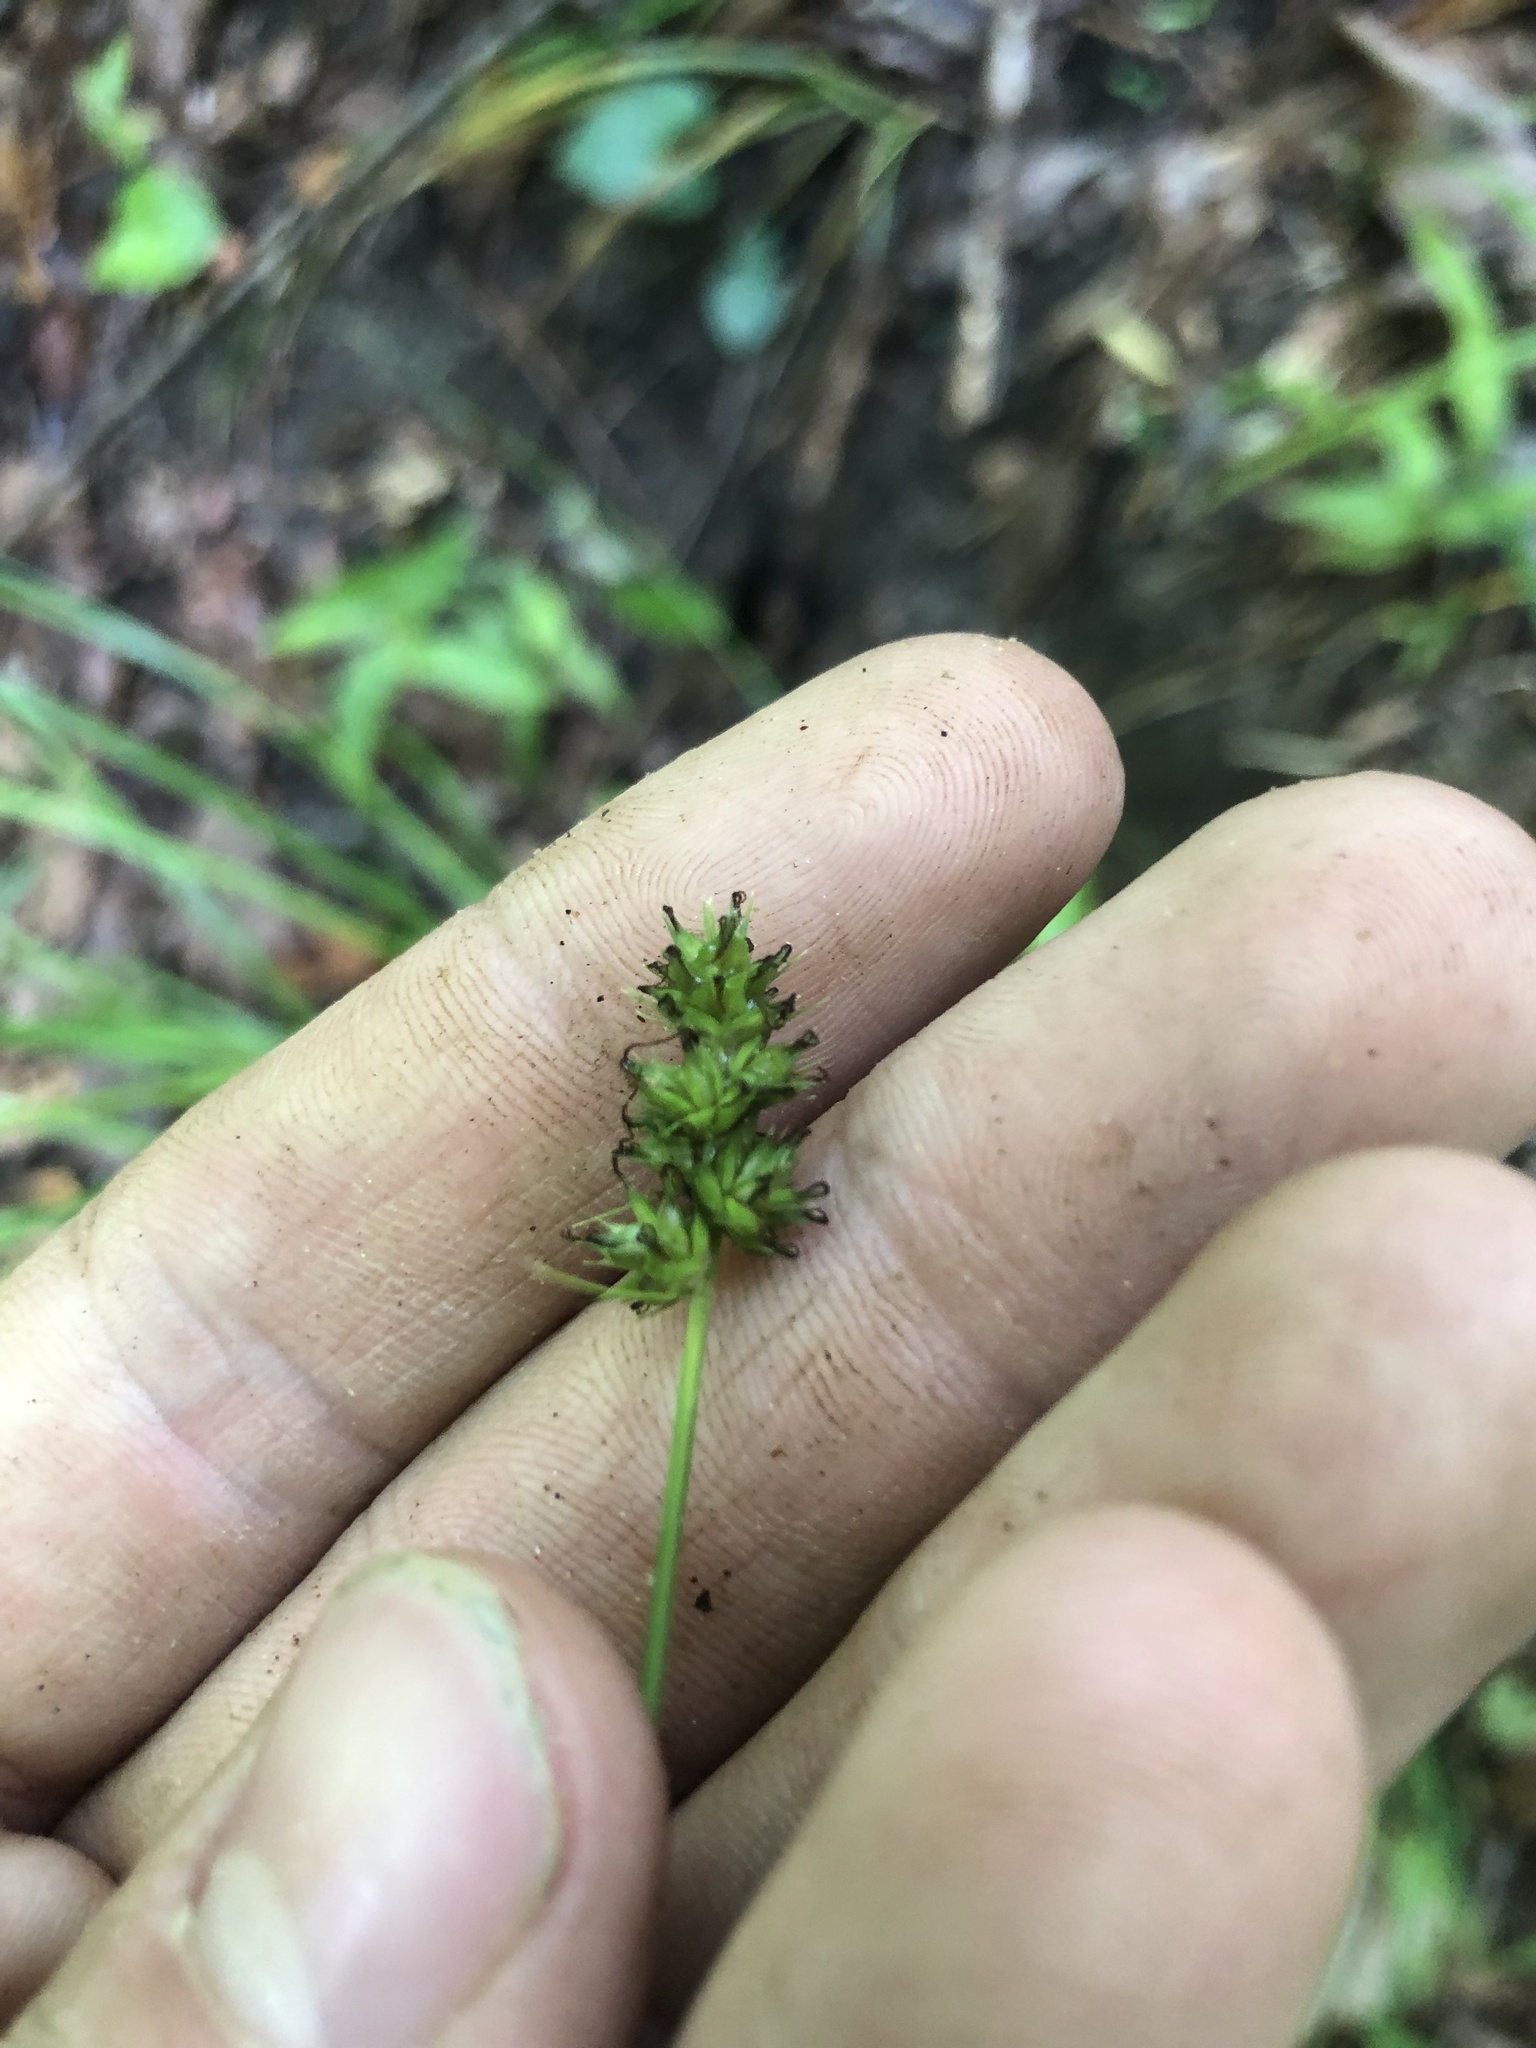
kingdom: Plantae
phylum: Tracheophyta
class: Liliopsida
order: Poales
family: Cyperaceae
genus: Carex
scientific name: Carex cephalophora
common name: Oval-headed sedge
